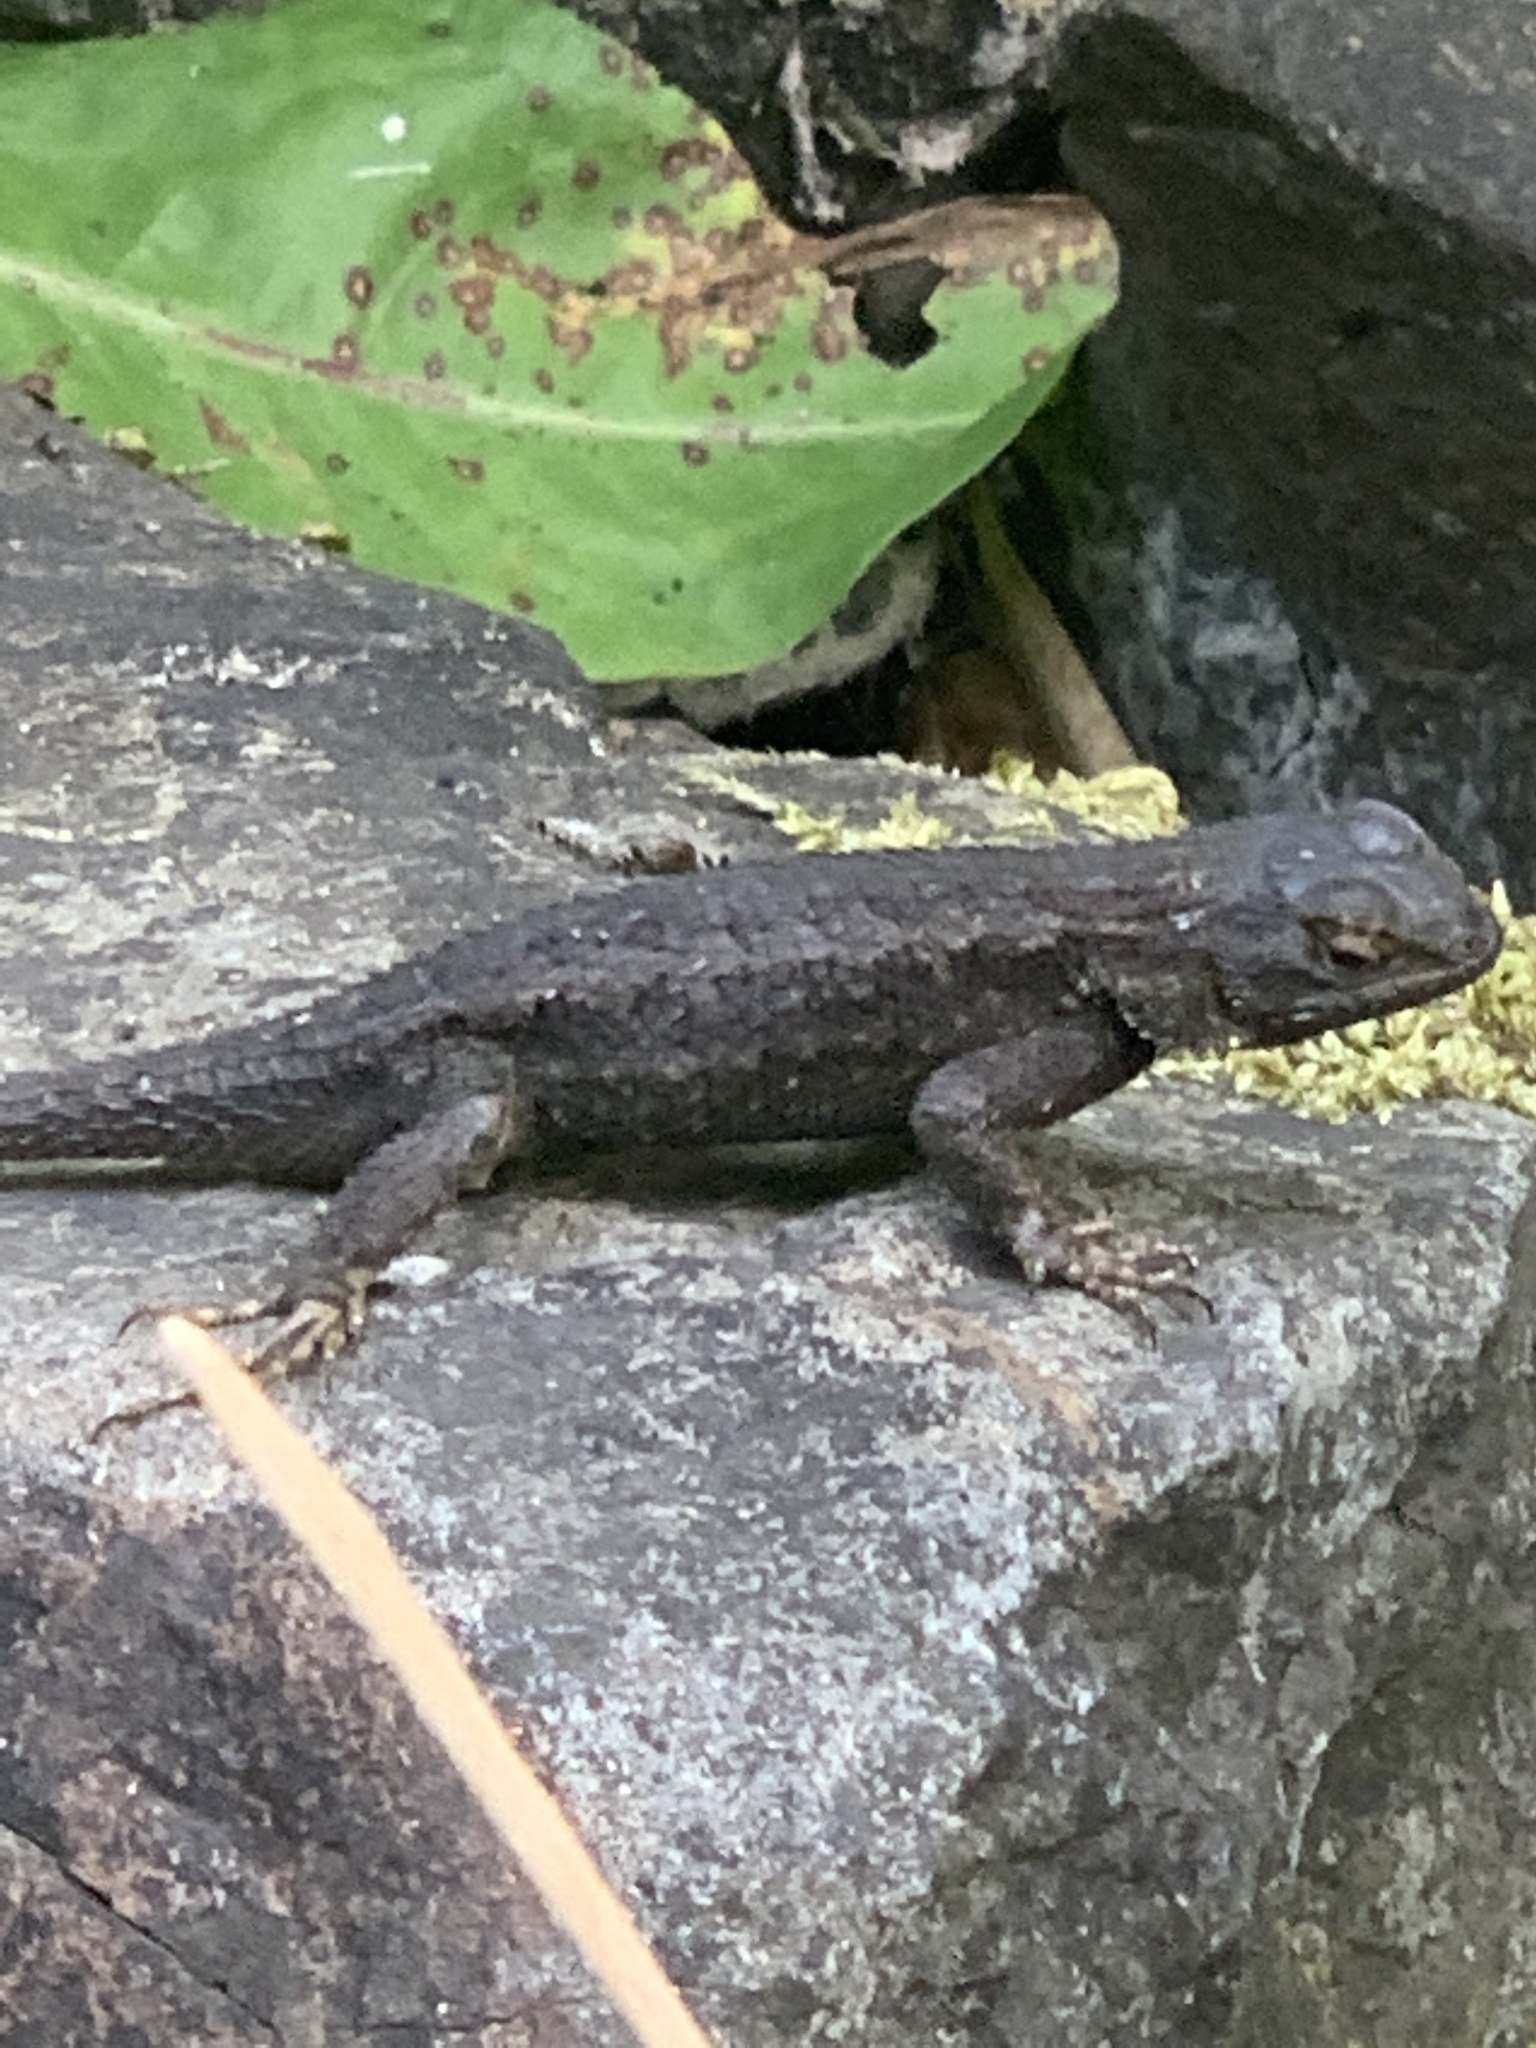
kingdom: Animalia
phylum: Chordata
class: Squamata
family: Phrynosomatidae
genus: Sceloporus
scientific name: Sceloporus occidentalis
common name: Western fence lizard
